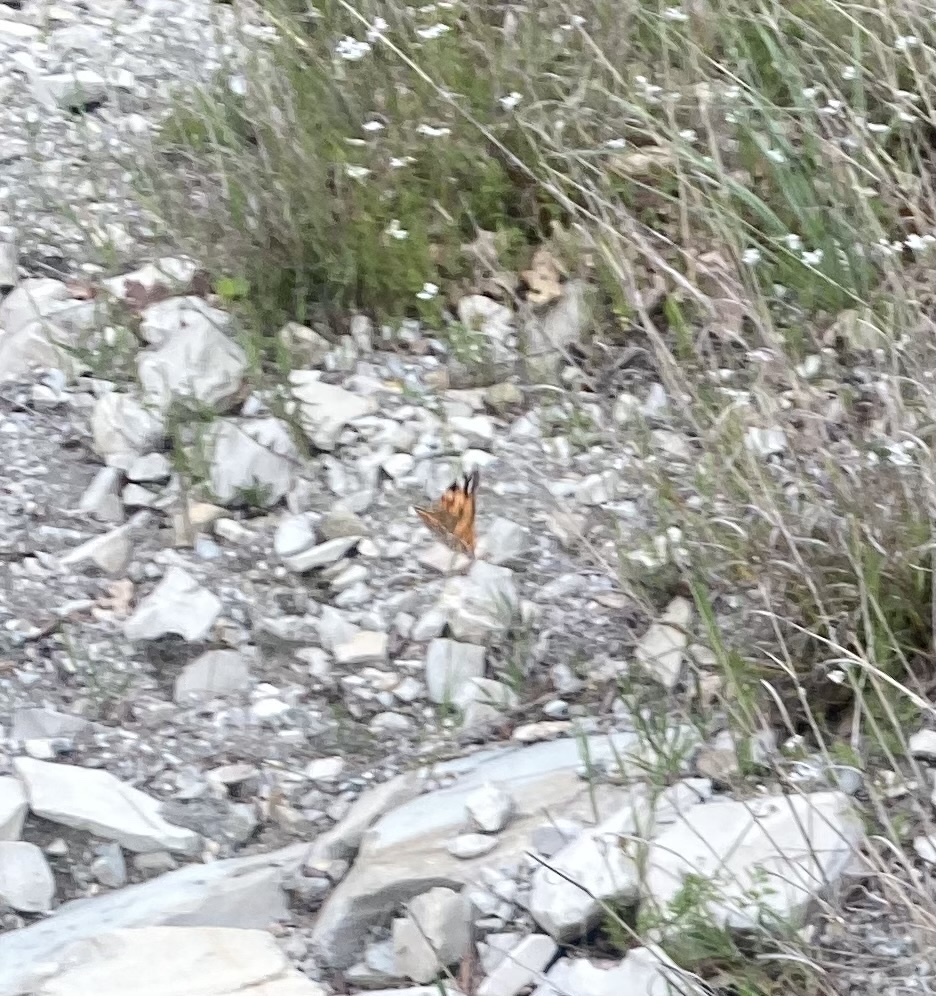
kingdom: Animalia
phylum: Arthropoda
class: Insecta
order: Lepidoptera
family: Nymphalidae
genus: Vanessa
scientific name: Vanessa cardui
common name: Painted lady
